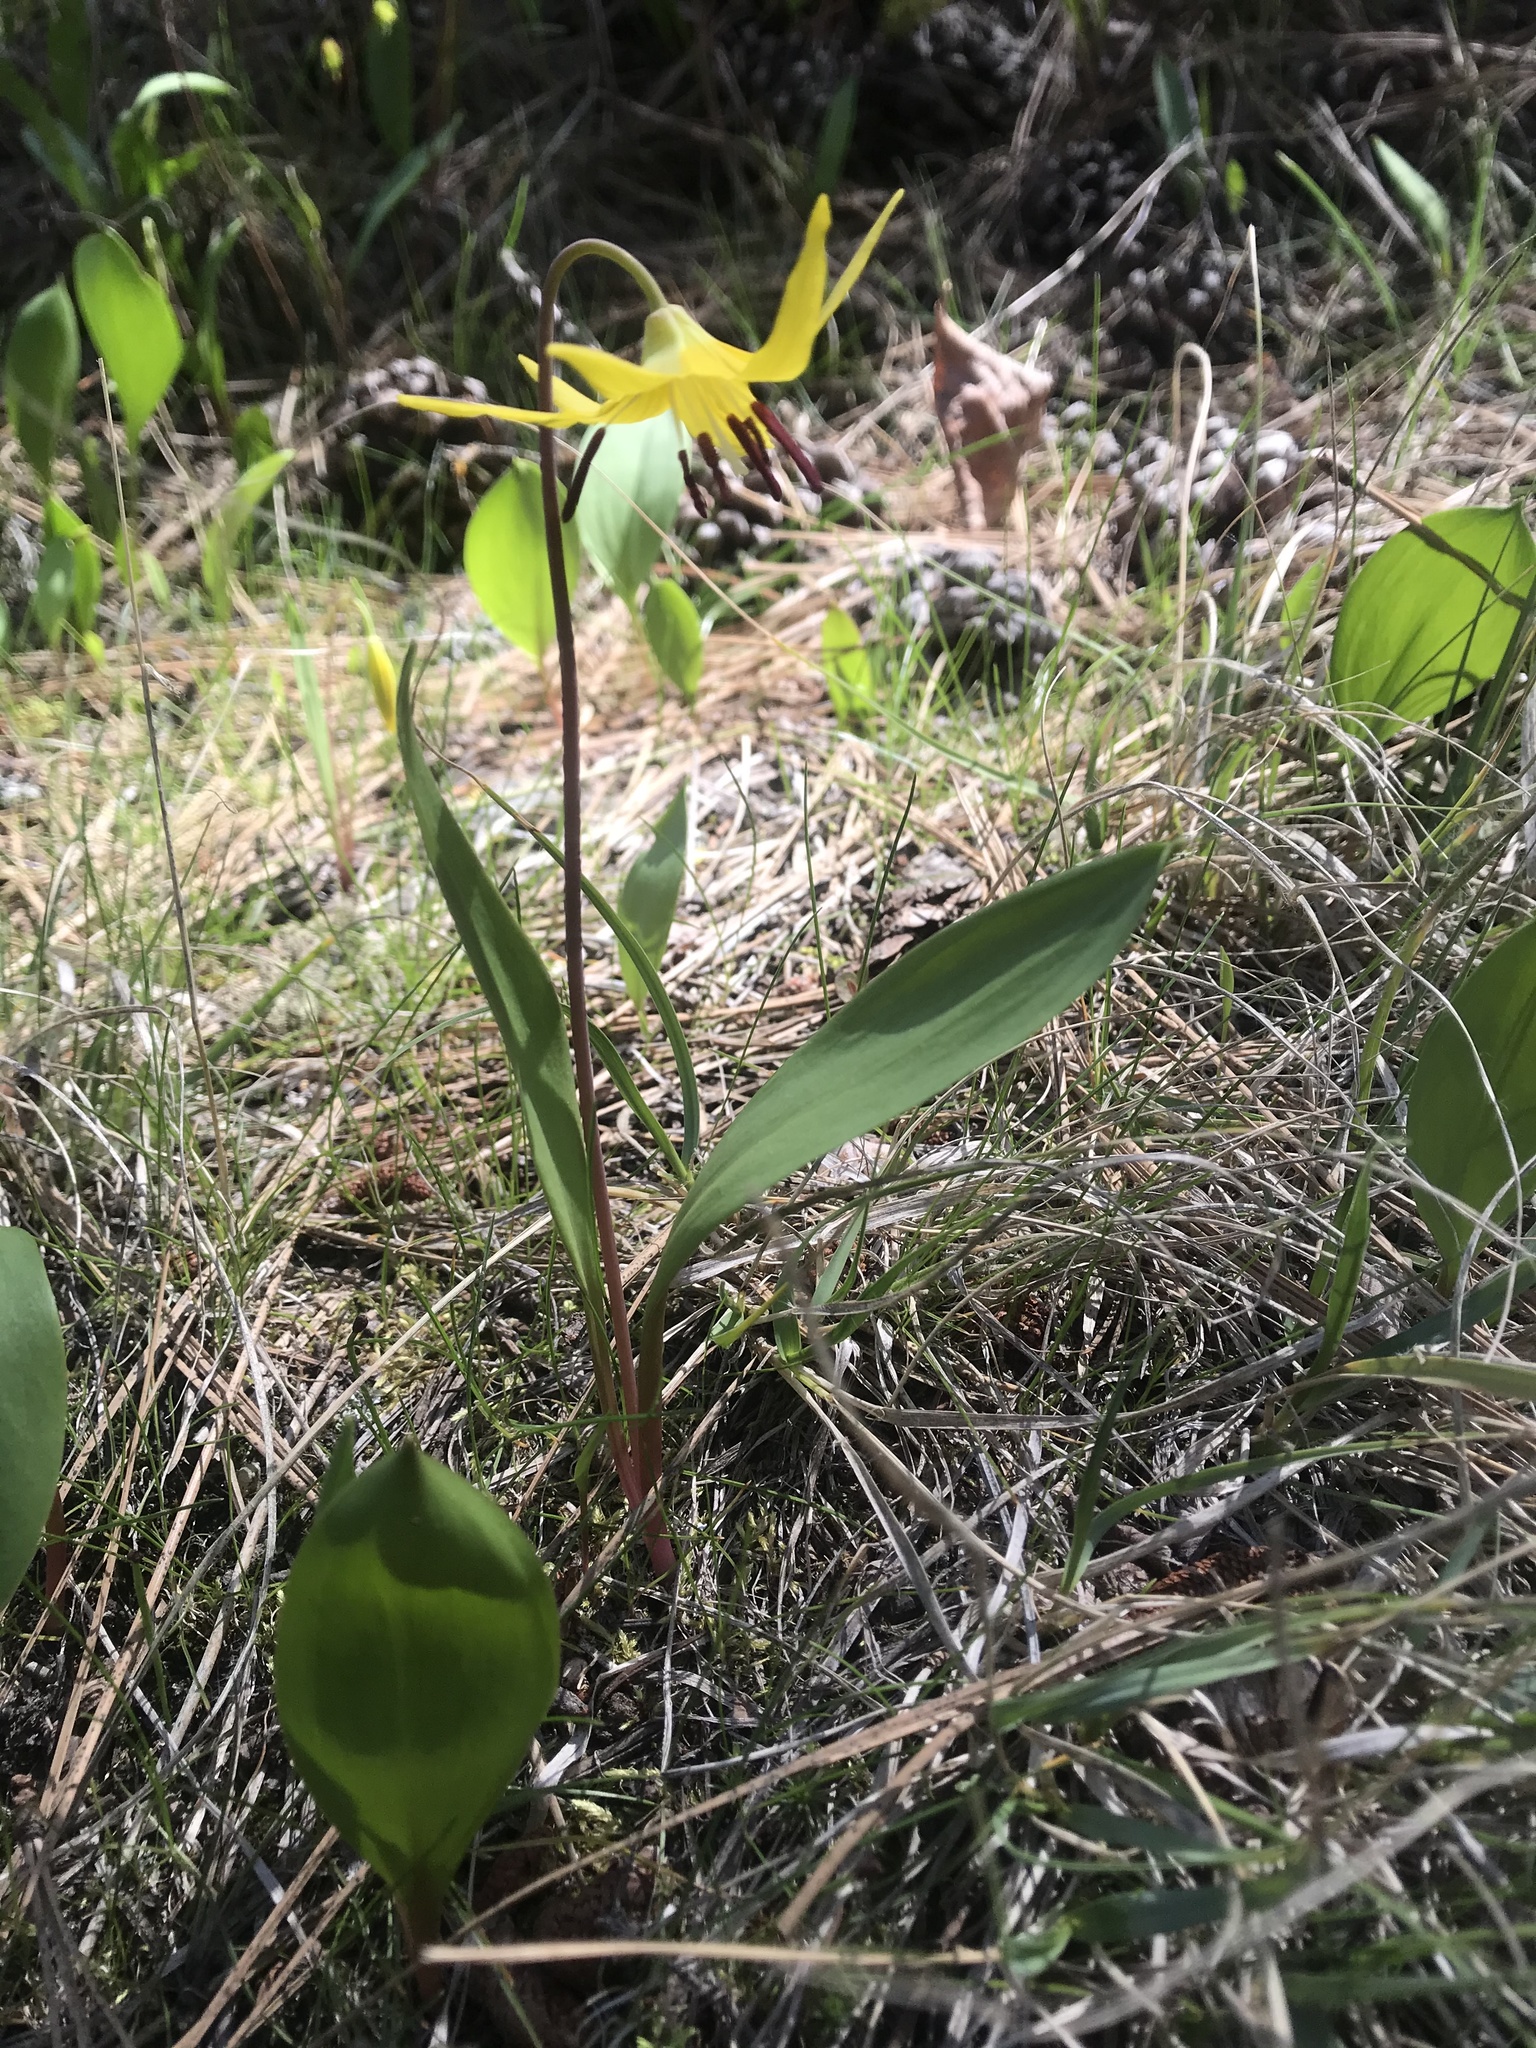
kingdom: Plantae
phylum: Tracheophyta
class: Liliopsida
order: Liliales
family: Liliaceae
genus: Erythronium
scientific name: Erythronium grandiflorum
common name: Avalanche-lily
